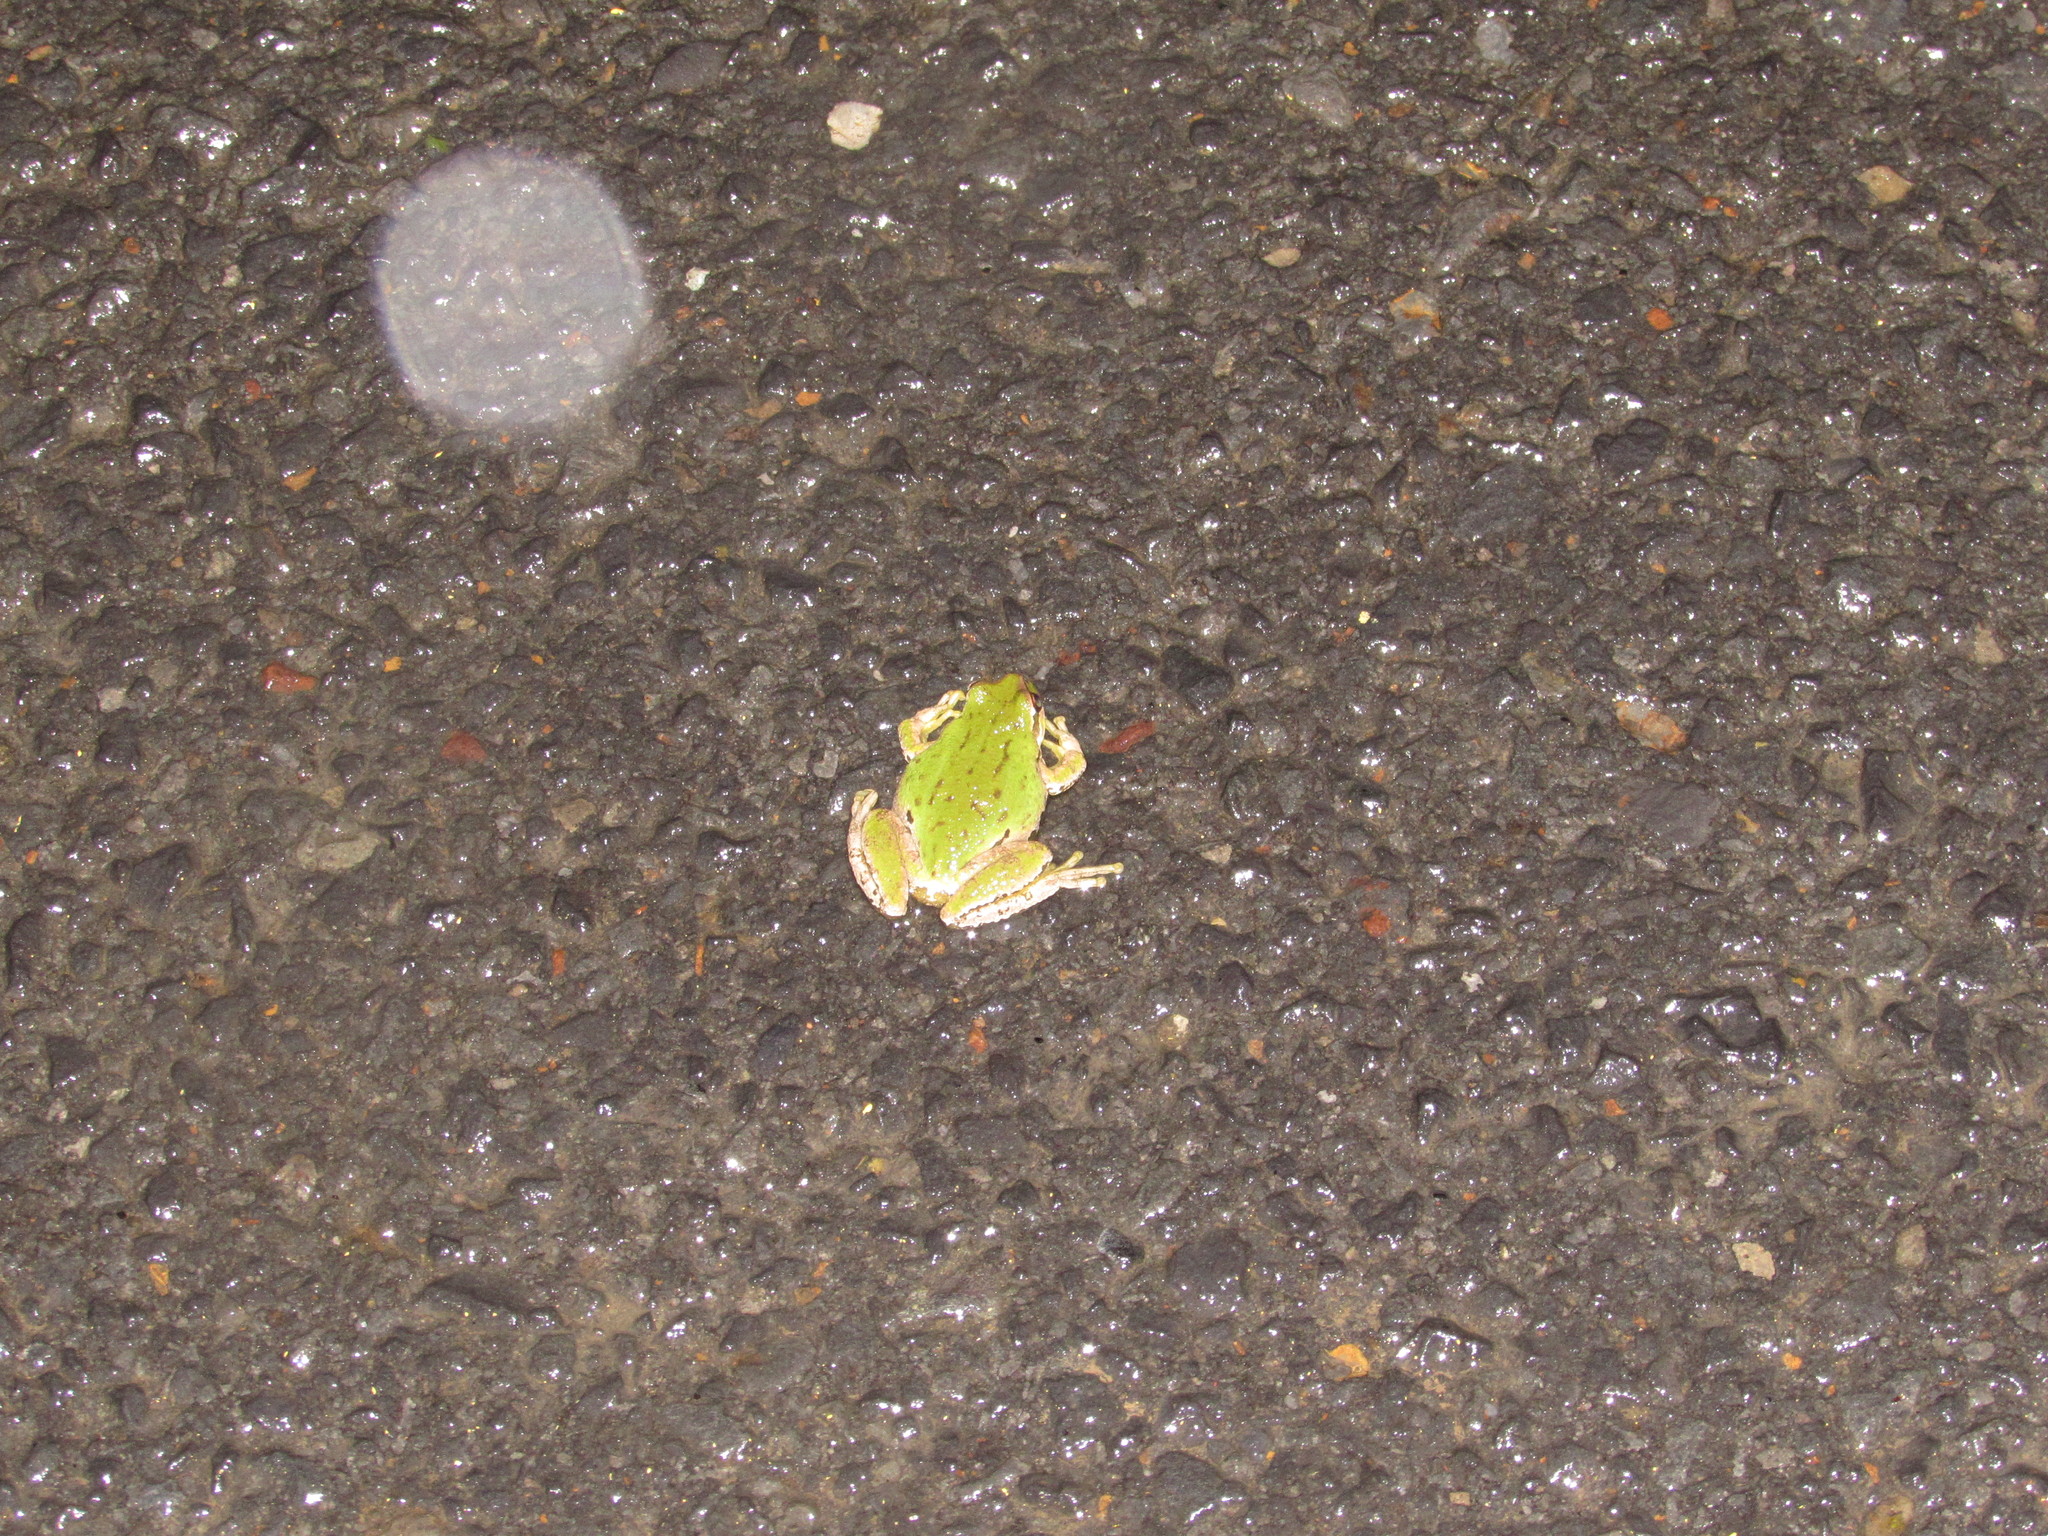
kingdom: Animalia
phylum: Chordata
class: Amphibia
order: Anura
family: Hylidae
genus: Pseudacris
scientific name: Pseudacris regilla
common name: Pacific chorus frog
